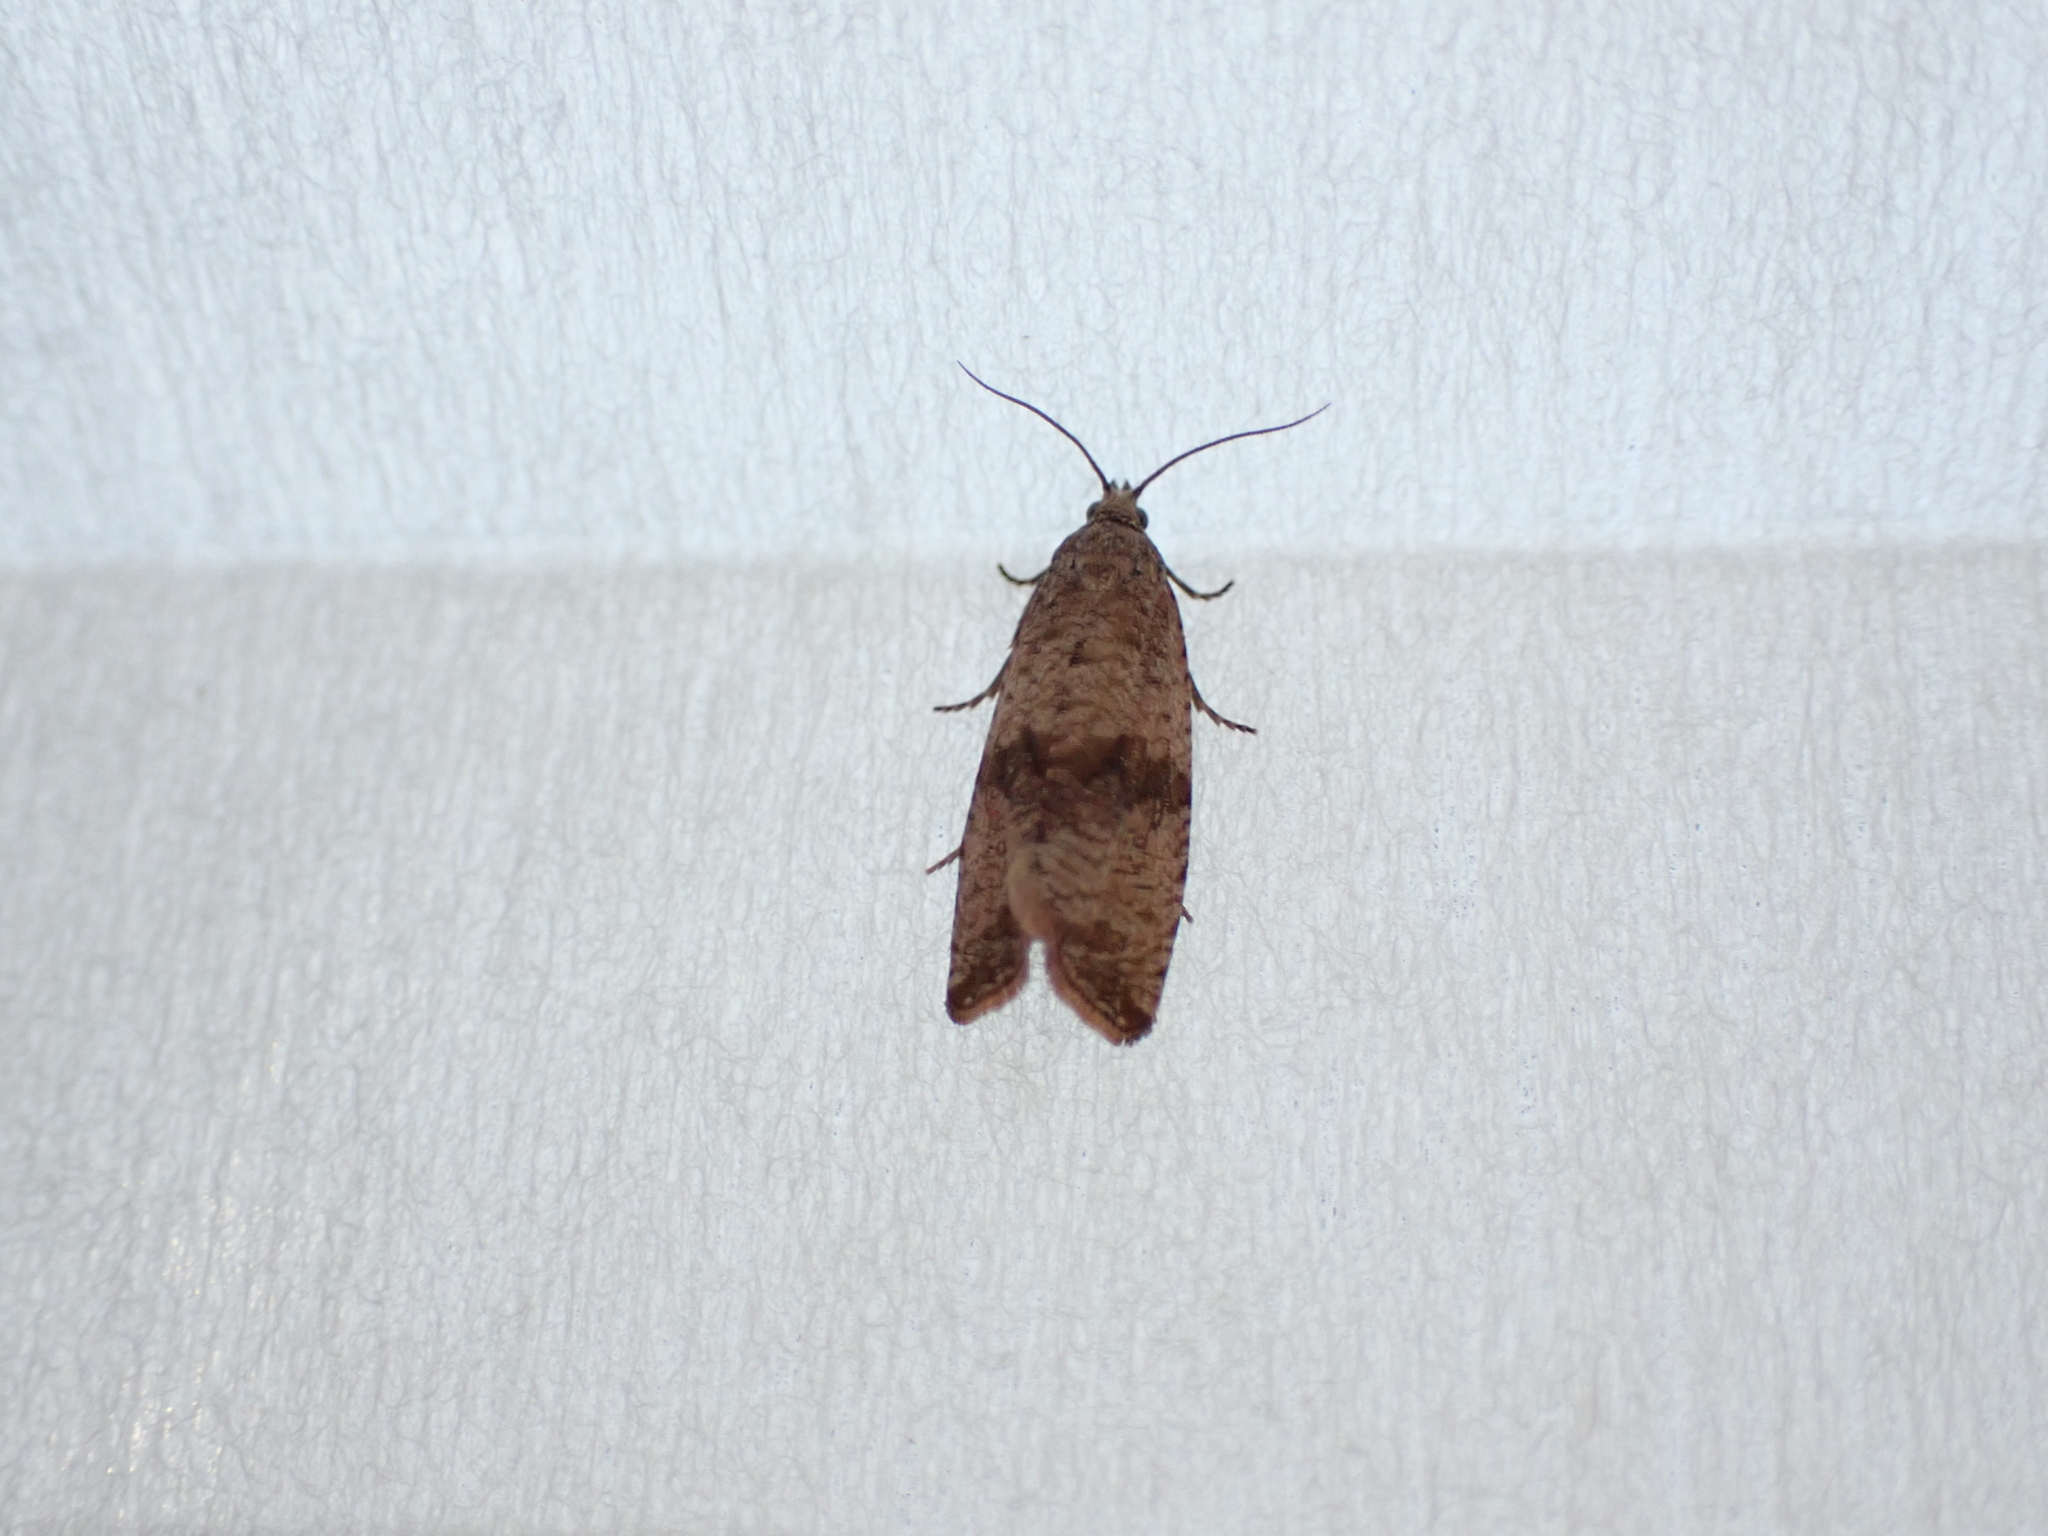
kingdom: Animalia
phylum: Arthropoda
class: Insecta
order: Lepidoptera
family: Tortricidae
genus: Celypha
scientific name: Celypha striana
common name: Barred marble
